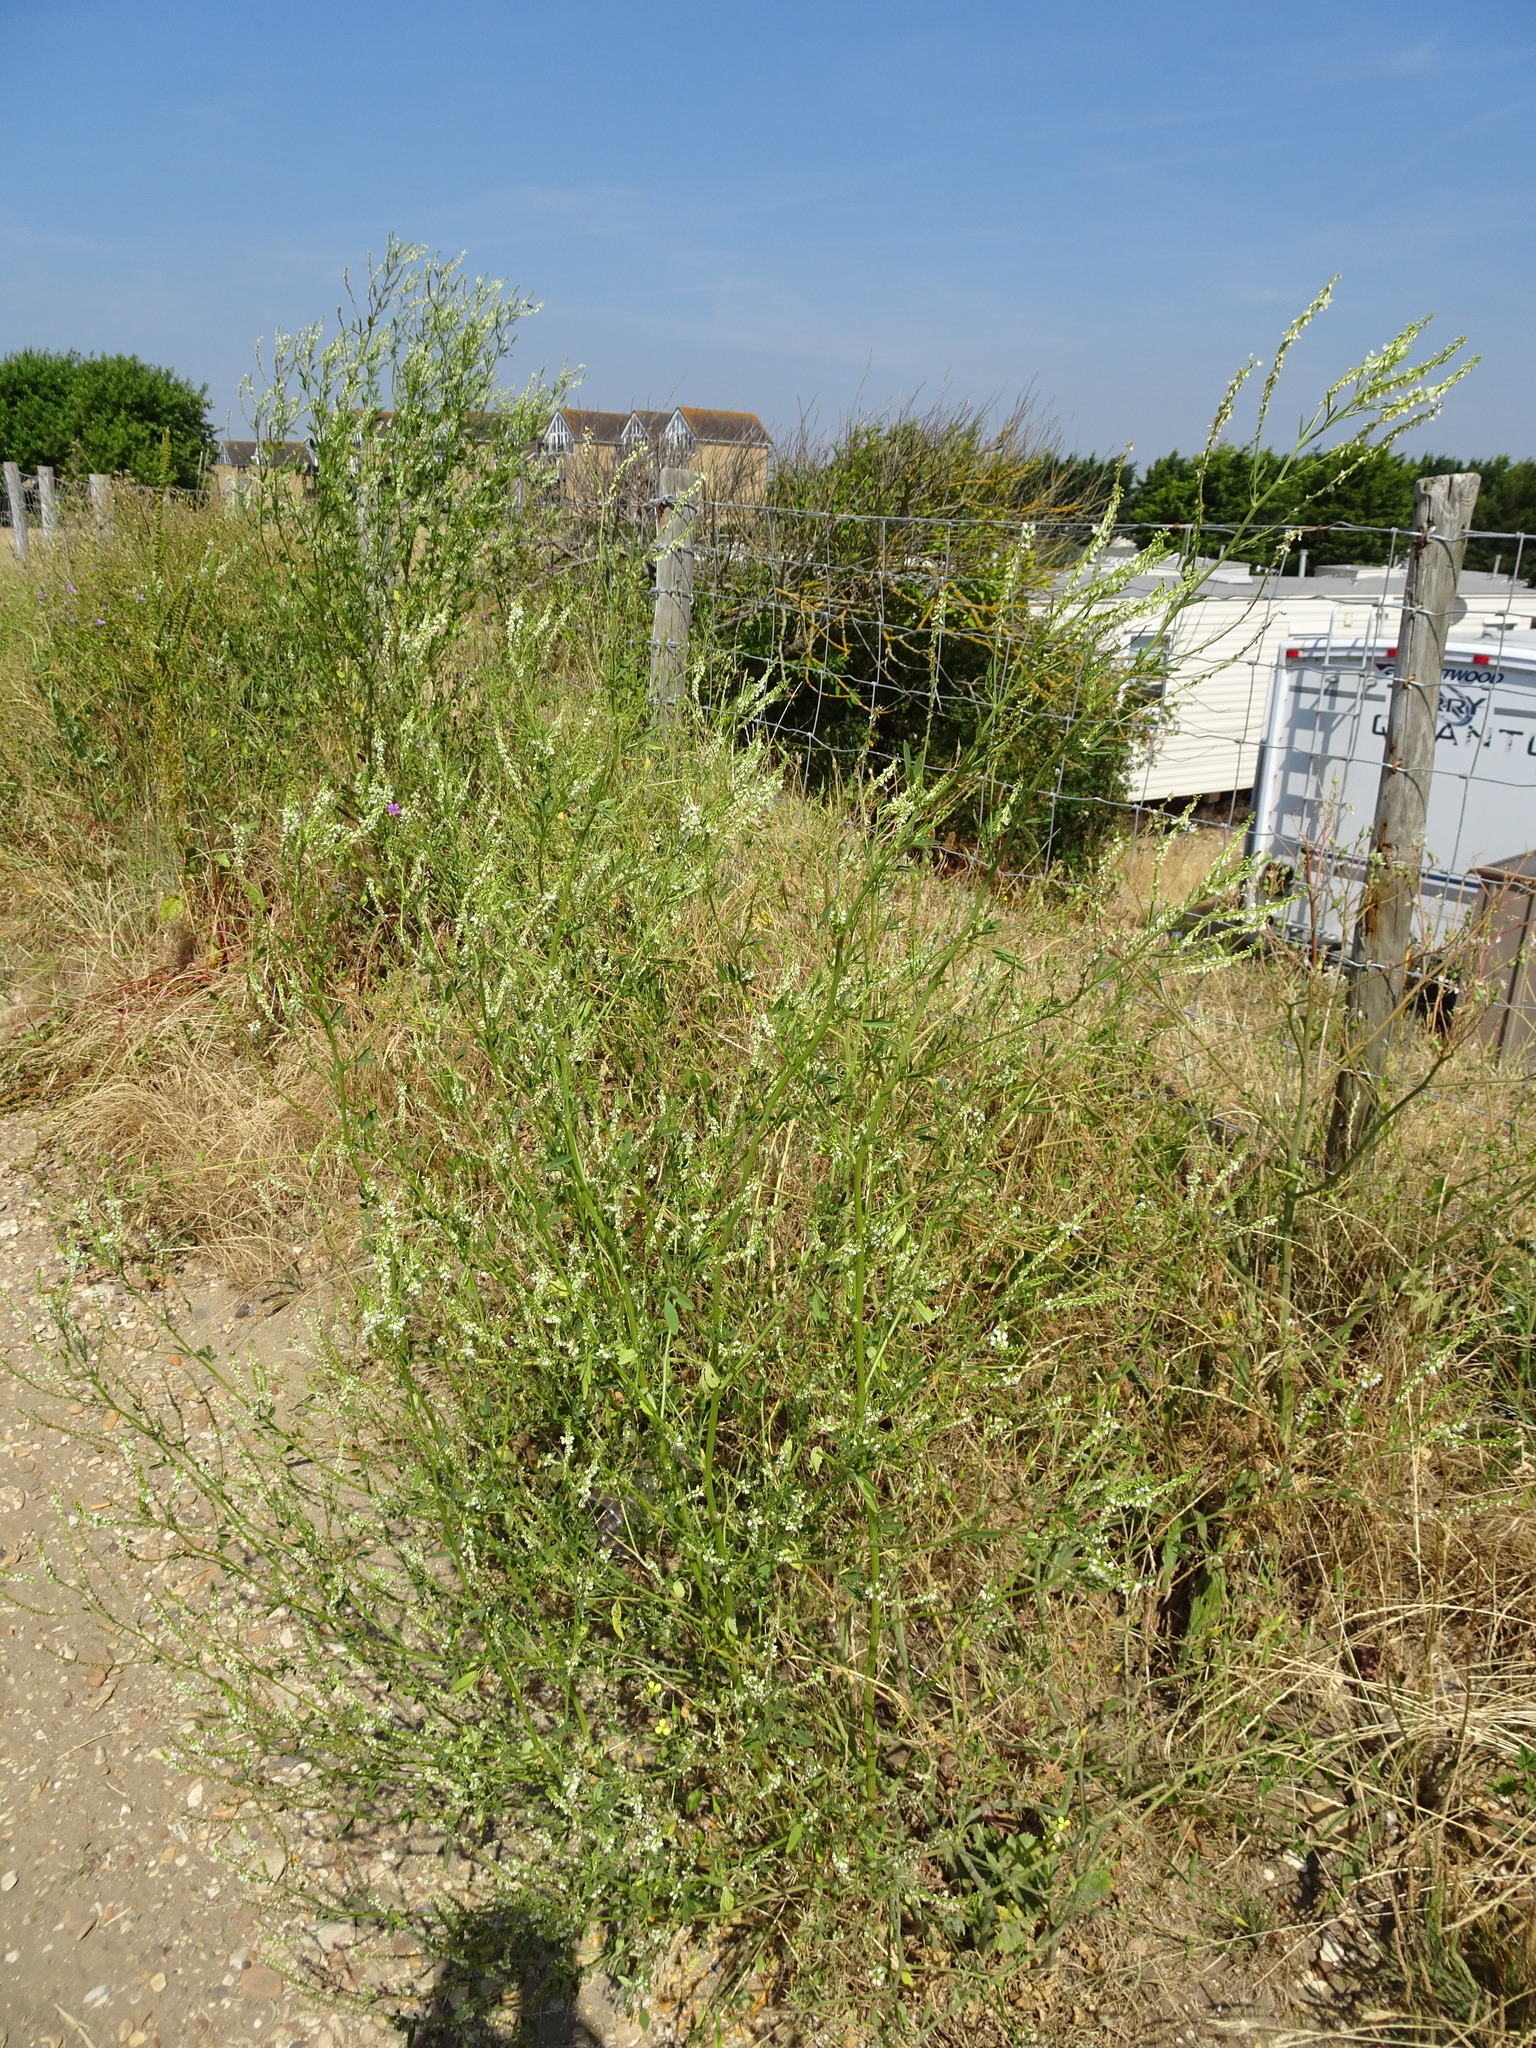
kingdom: Plantae
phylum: Tracheophyta
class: Magnoliopsida
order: Fabales
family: Fabaceae
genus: Melilotus
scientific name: Melilotus albus
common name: White melilot
